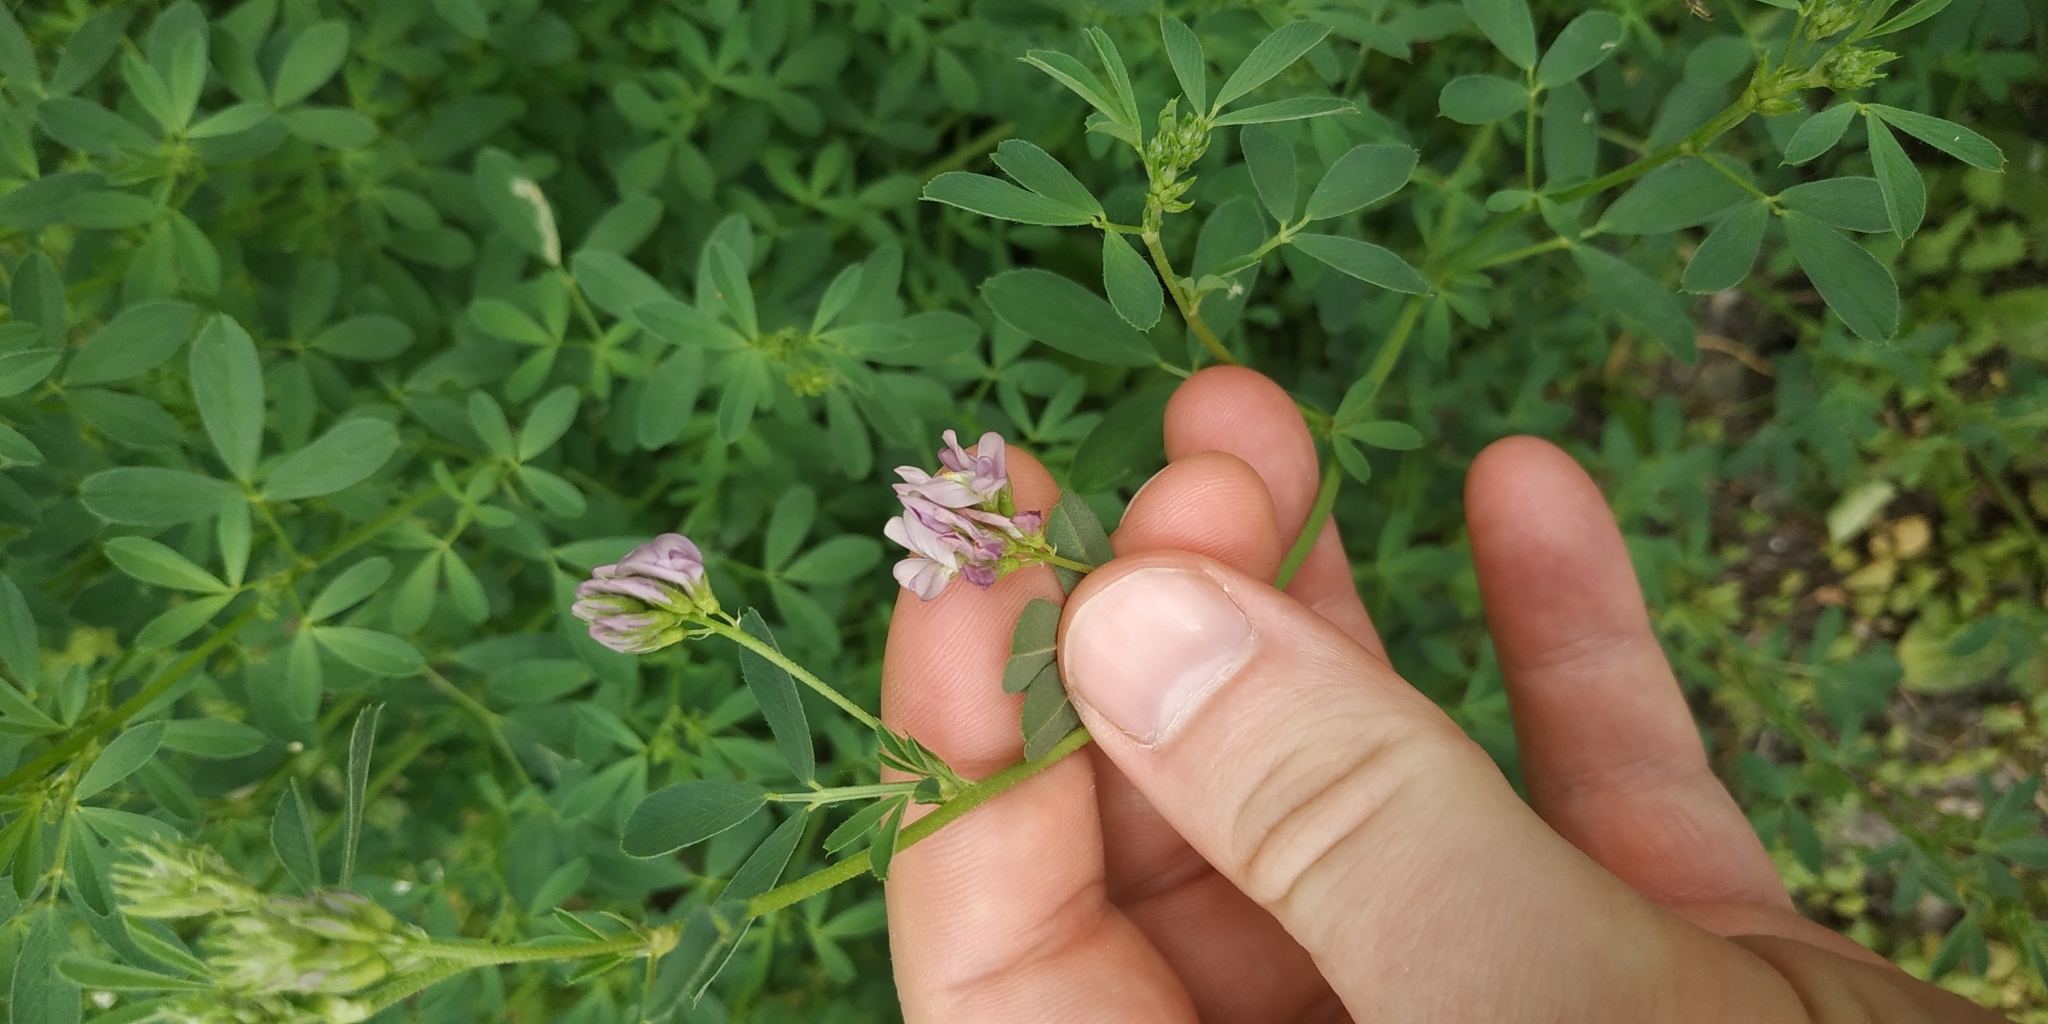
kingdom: Plantae
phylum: Tracheophyta
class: Magnoliopsida
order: Fabales
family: Fabaceae
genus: Medicago
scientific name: Medicago varia
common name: Sand lucerne
